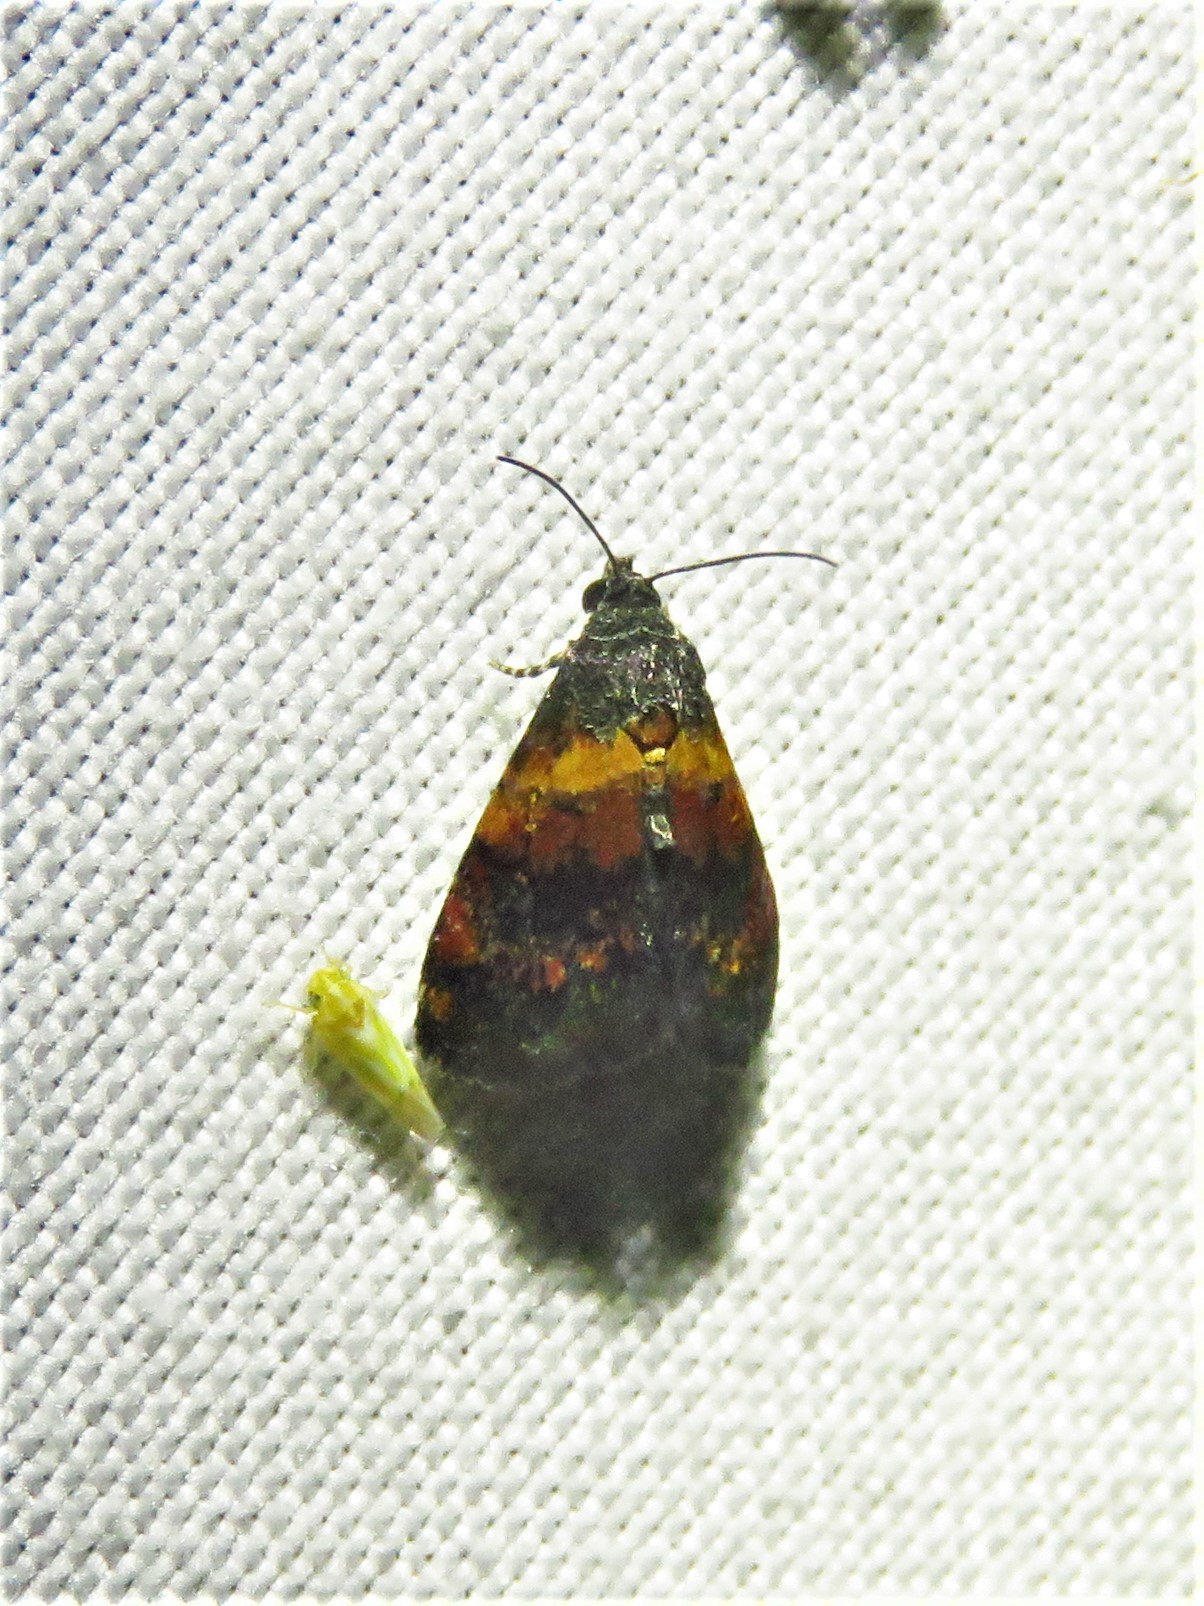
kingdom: Animalia
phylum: Arthropoda
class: Insecta
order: Lepidoptera
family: Noctuidae
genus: Tripudia
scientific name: Tripudia flavofasciata
